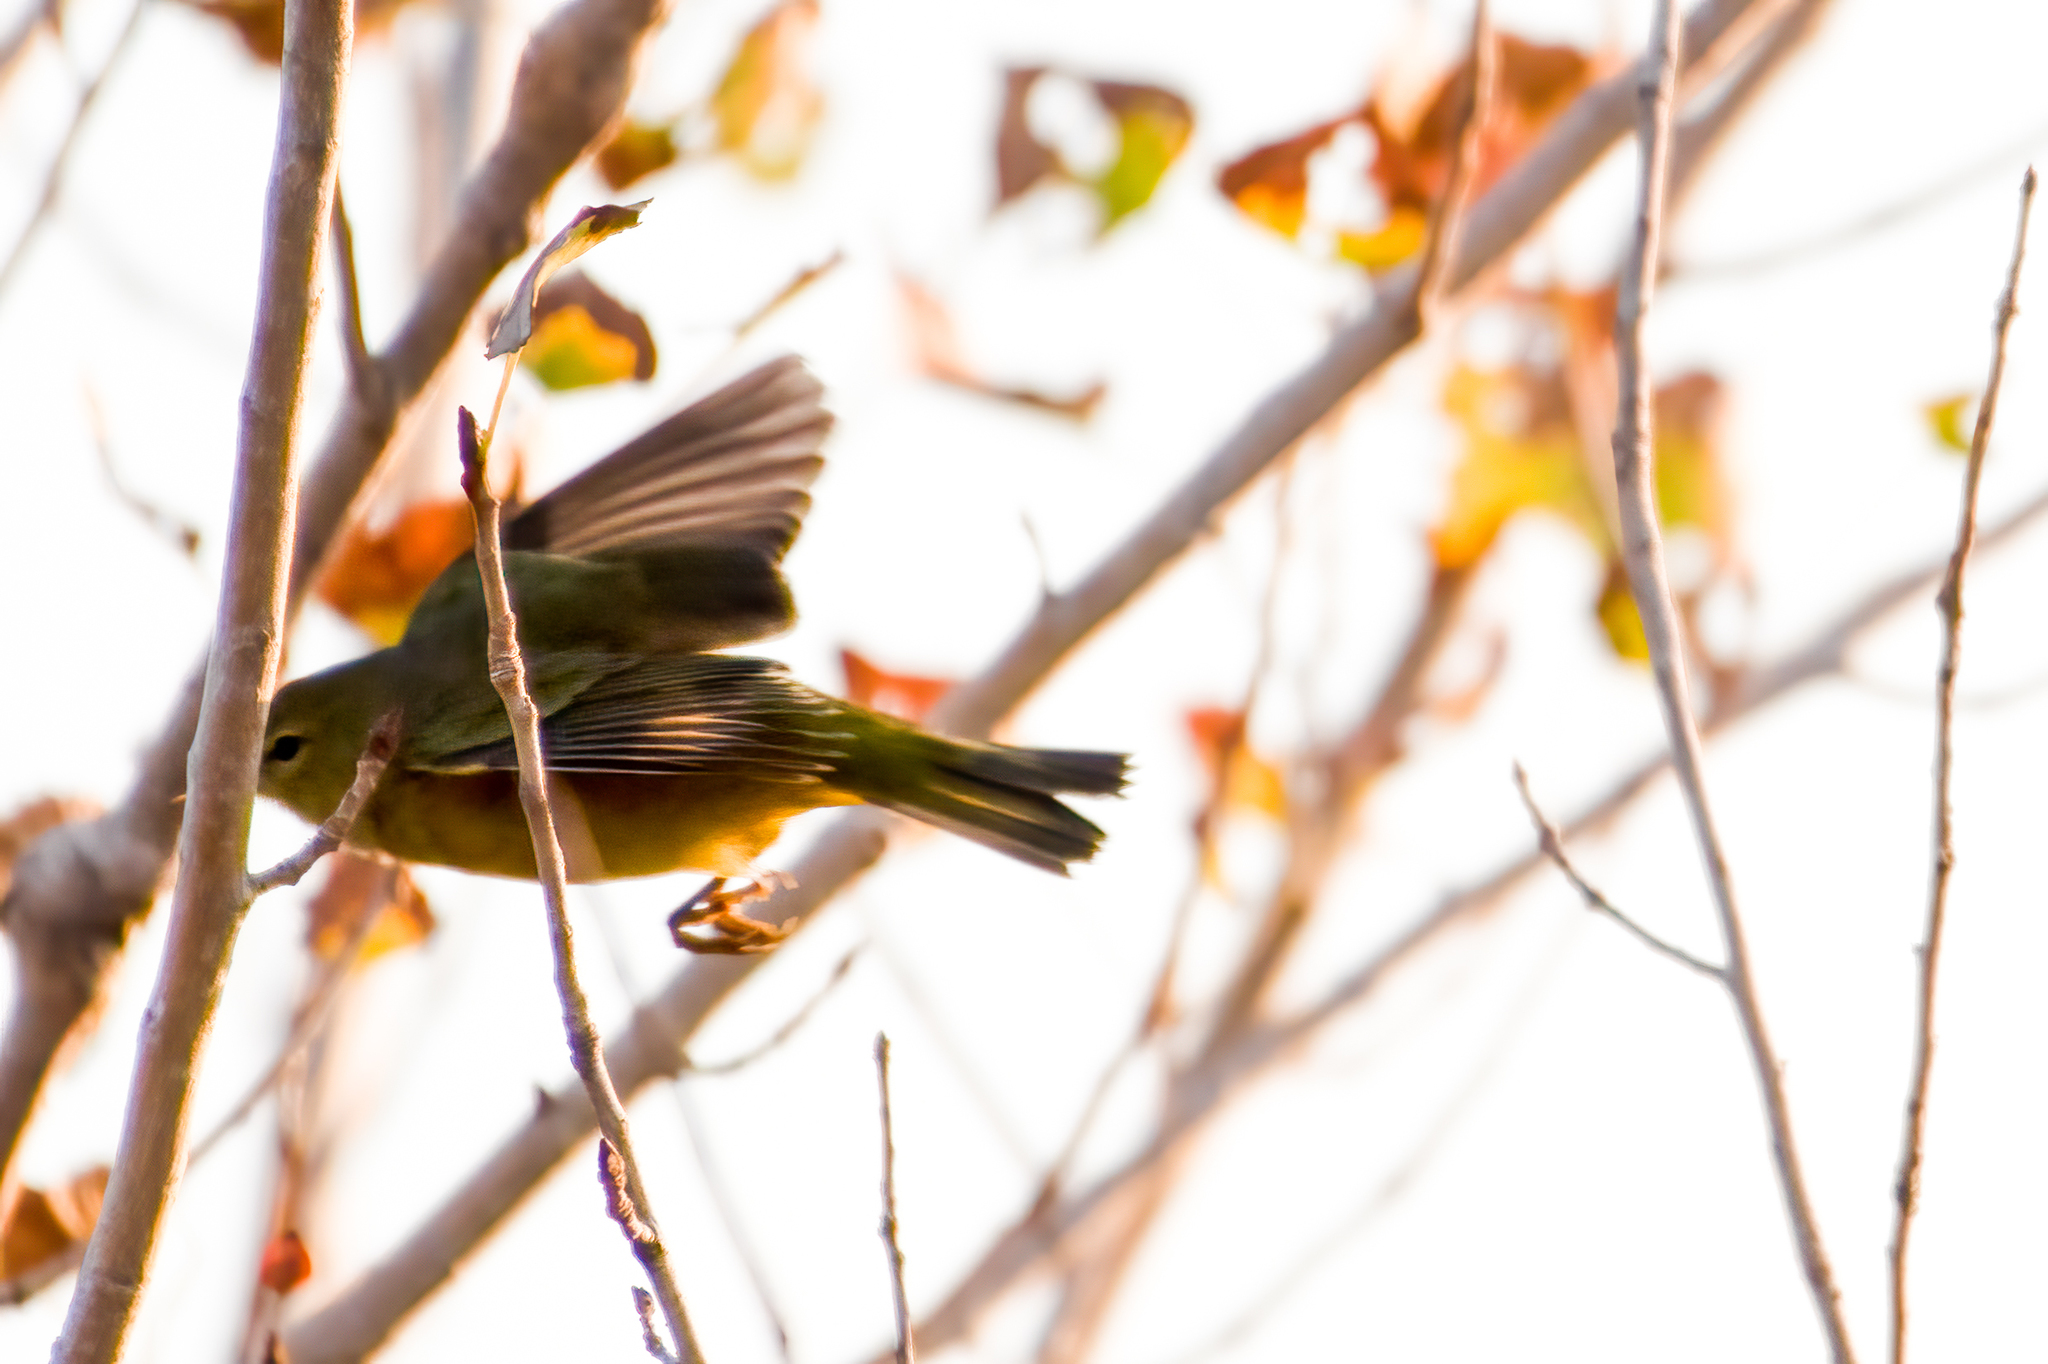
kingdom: Animalia
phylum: Chordata
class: Aves
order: Passeriformes
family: Parulidae
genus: Leiothlypis
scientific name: Leiothlypis celata
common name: Orange-crowned warbler
